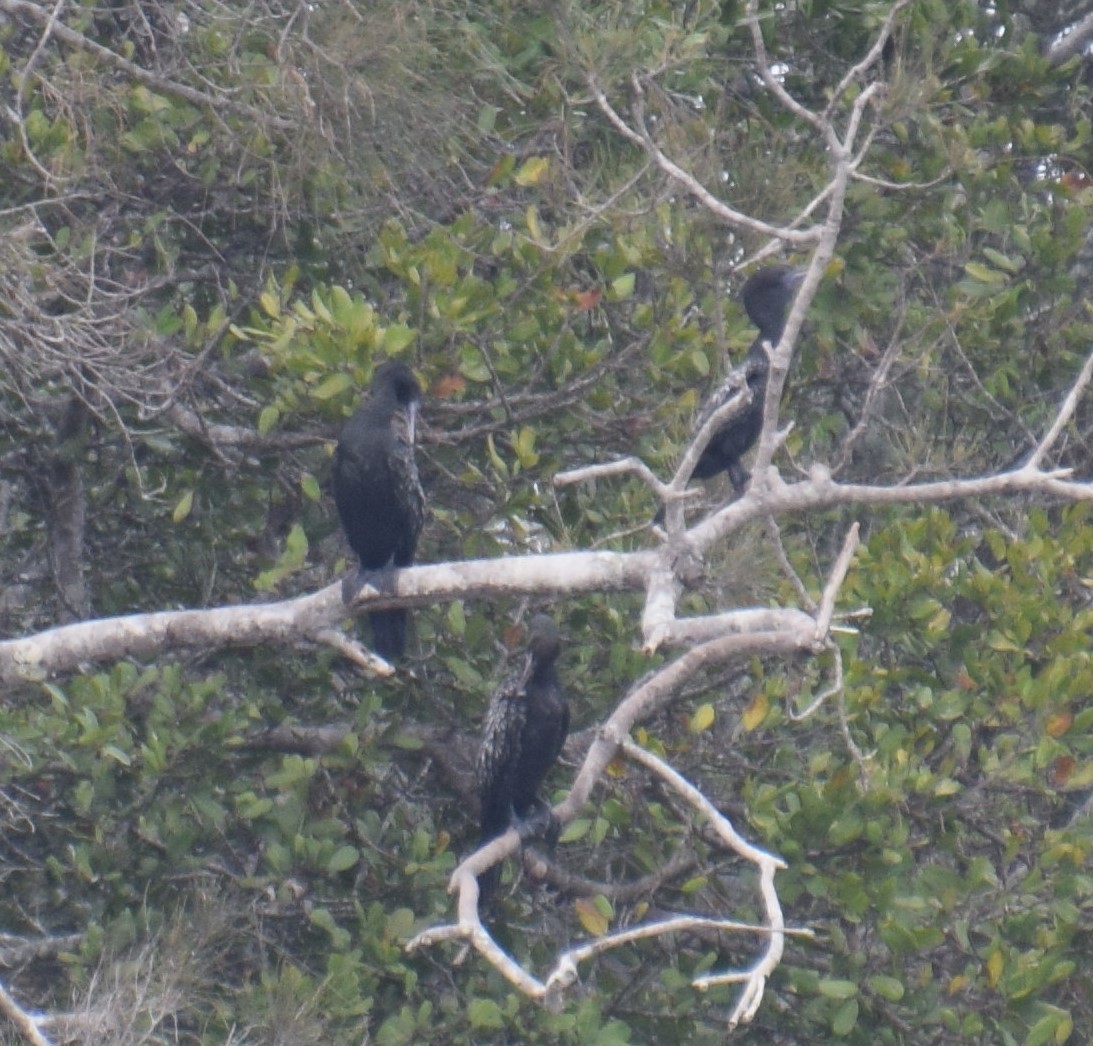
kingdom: Animalia
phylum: Chordata
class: Aves
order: Suliformes
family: Phalacrocoracidae
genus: Phalacrocorax
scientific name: Phalacrocorax sulcirostris
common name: Little black cormorant
